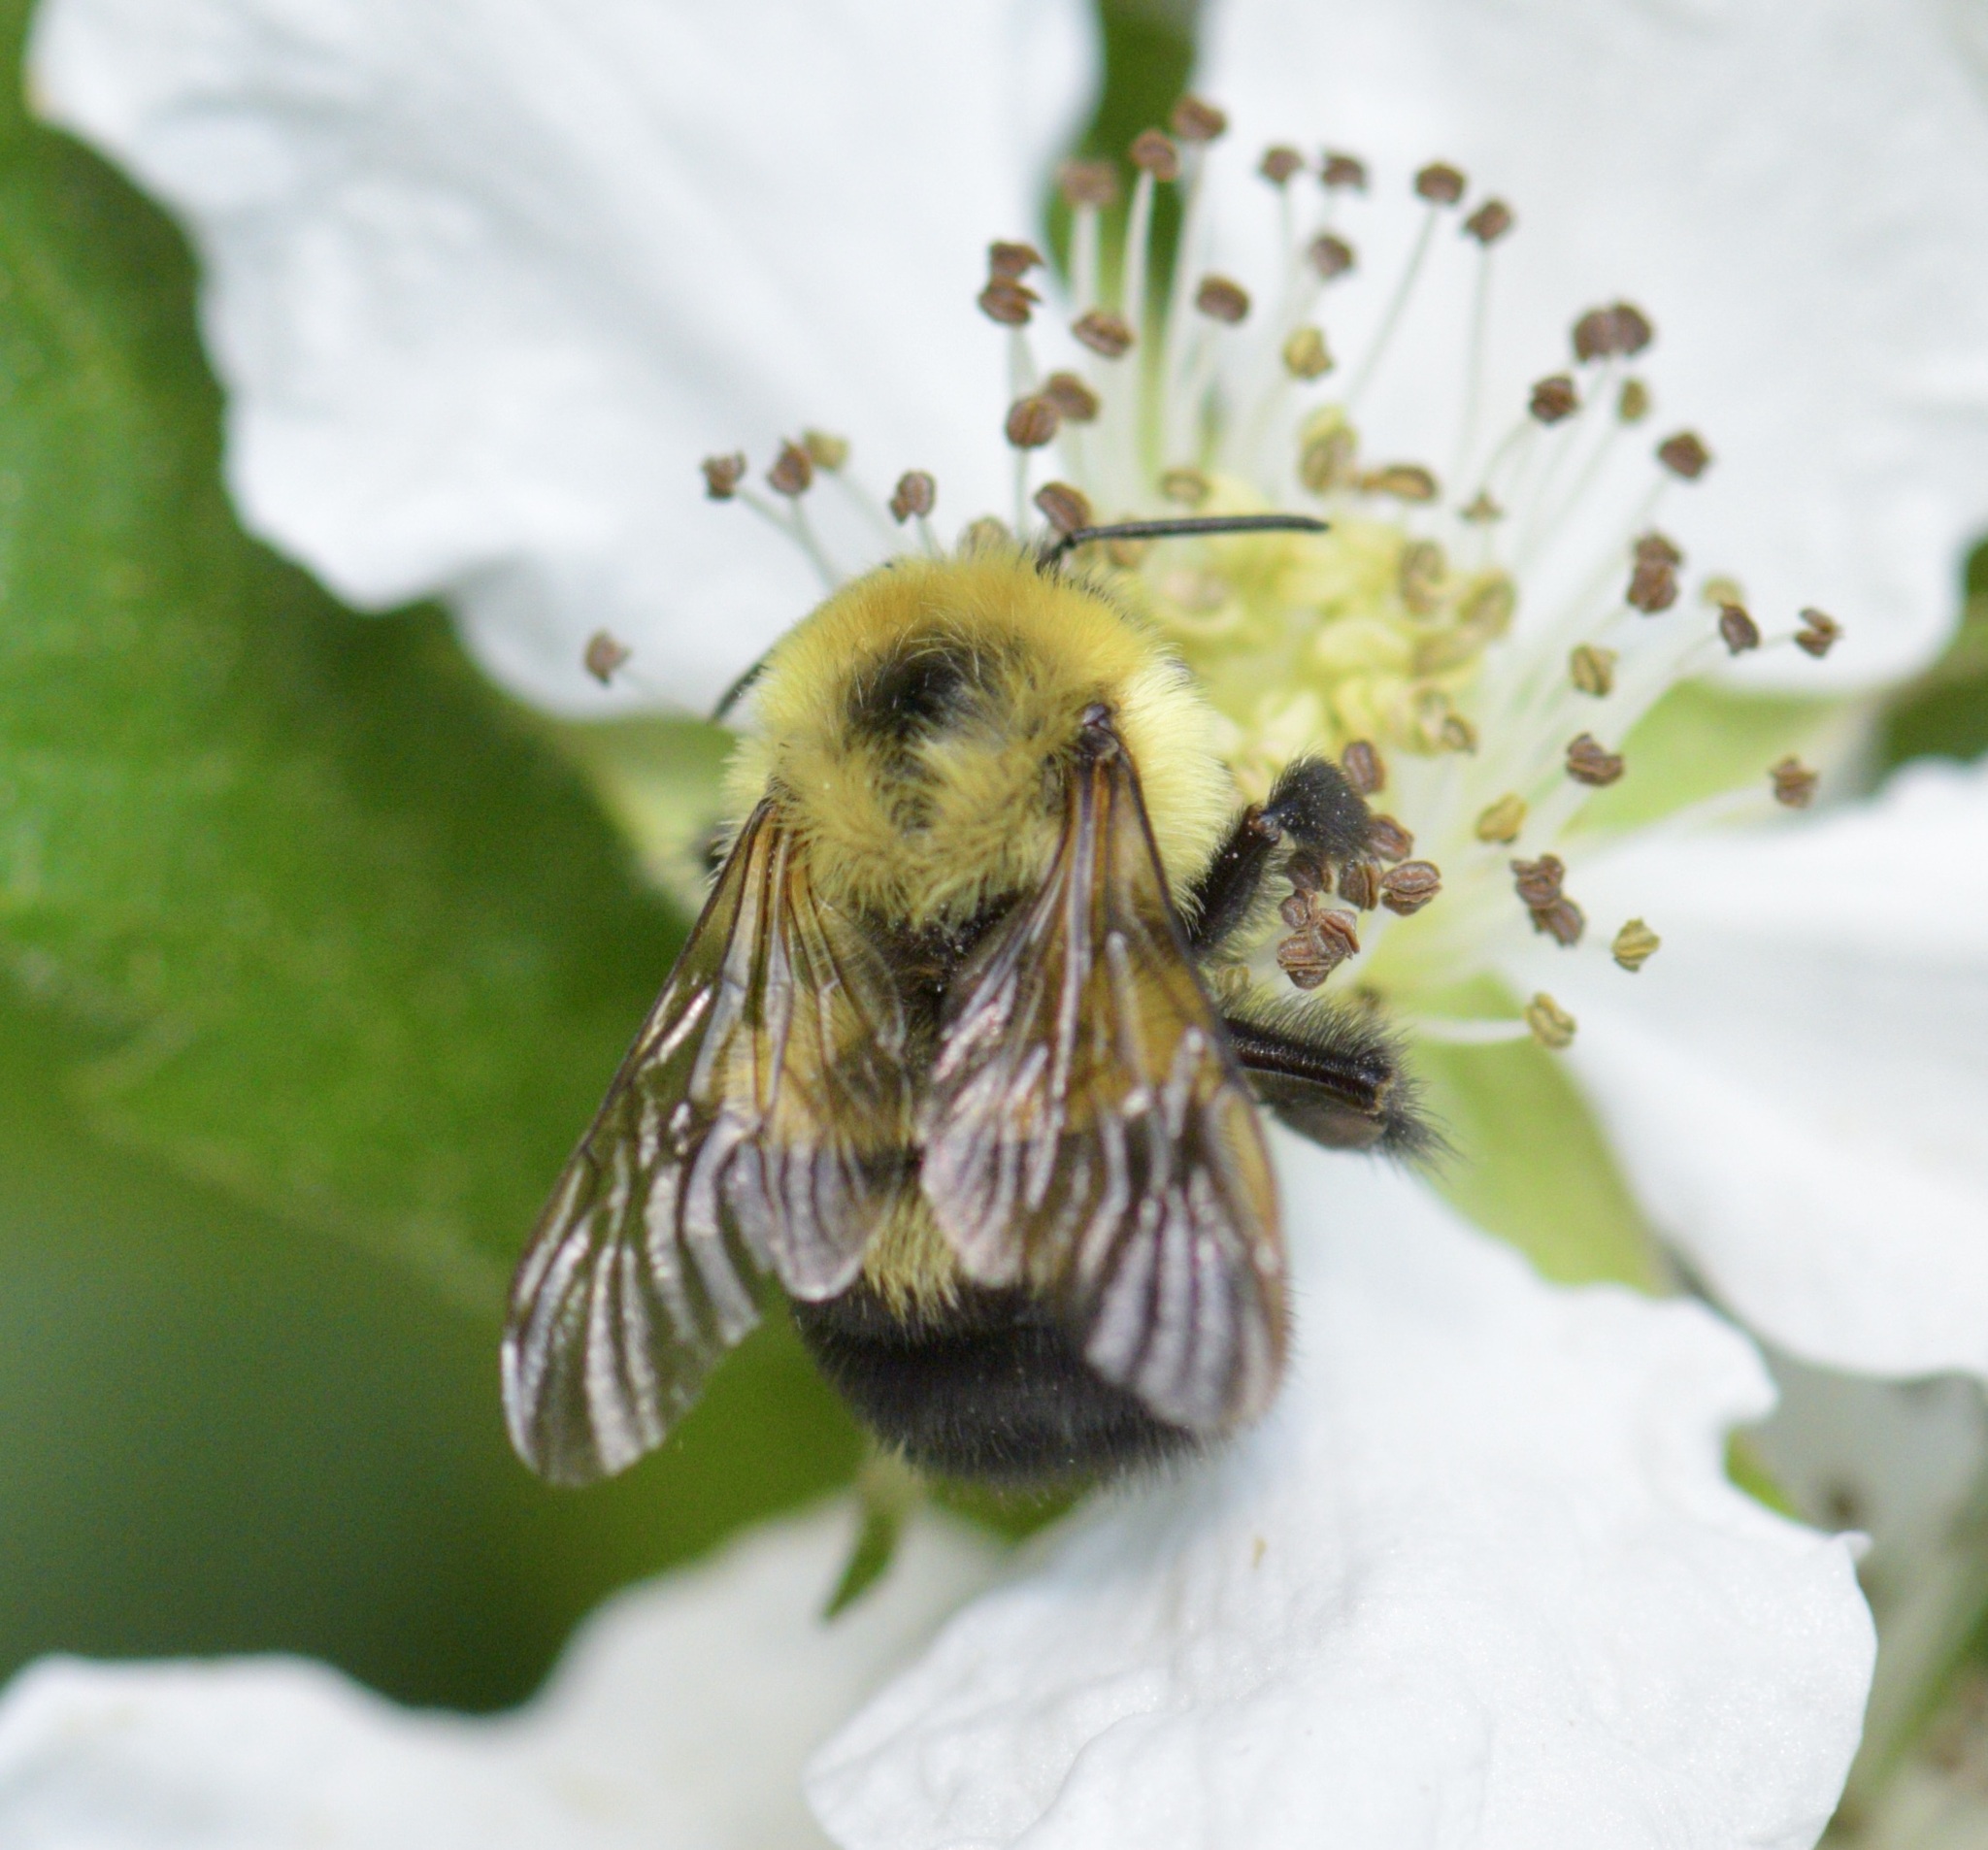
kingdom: Animalia
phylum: Arthropoda
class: Insecta
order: Hymenoptera
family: Apidae
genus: Bombus
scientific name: Bombus bimaculatus
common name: Two-spotted bumble bee
